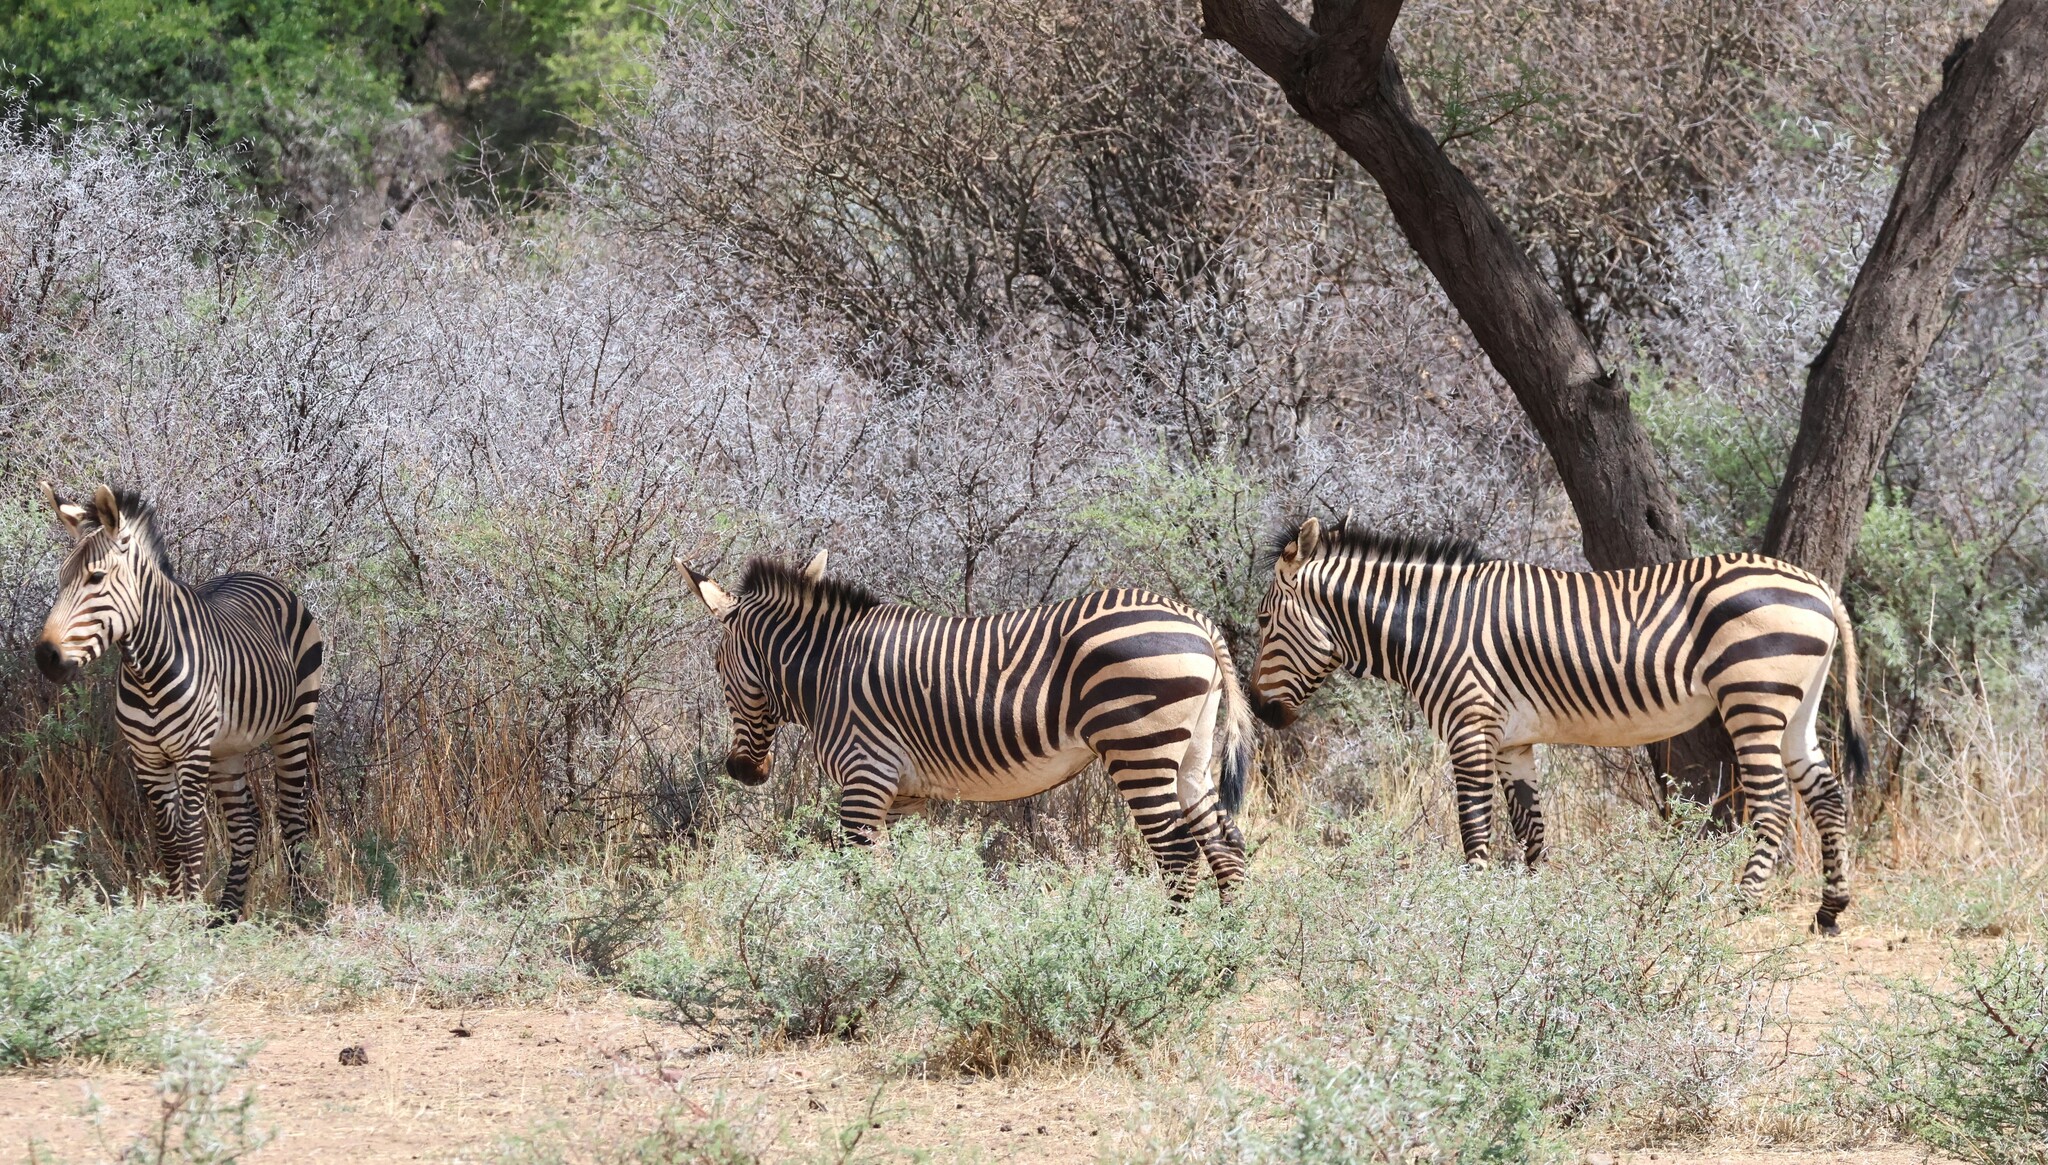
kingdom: Animalia
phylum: Chordata
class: Mammalia
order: Perissodactyla
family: Equidae
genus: Equus
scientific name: Equus hartmannae
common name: Hartmann's mountain zebra
